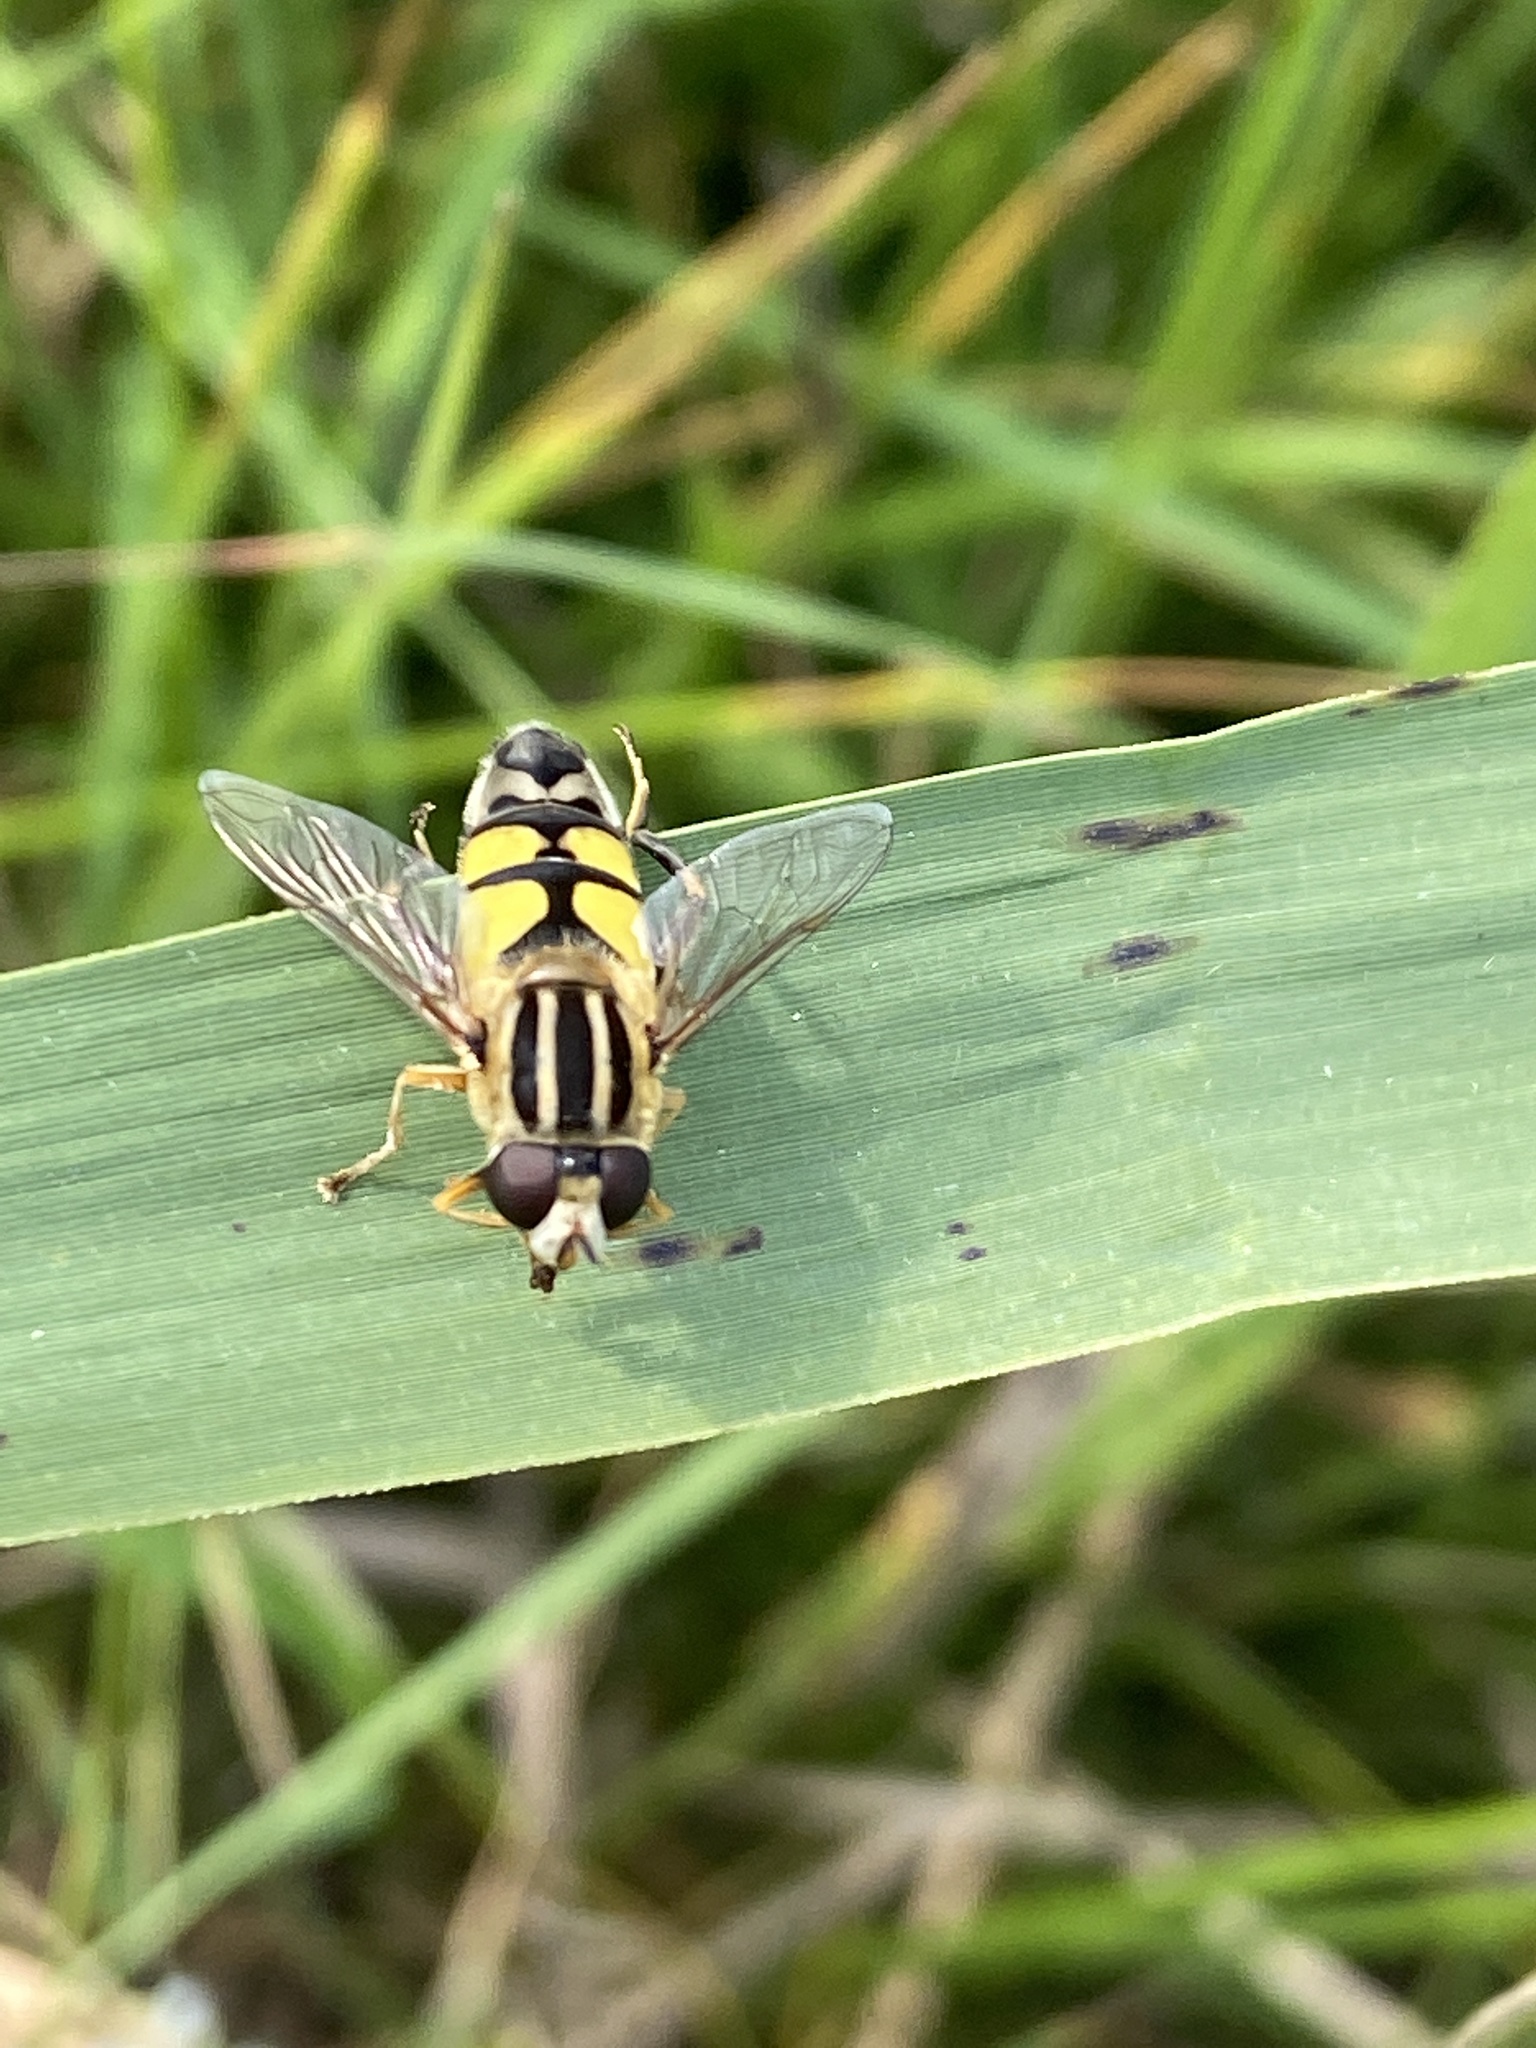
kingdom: Animalia
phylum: Arthropoda
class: Insecta
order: Diptera
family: Syrphidae
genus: Helophilus
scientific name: Helophilus trivittatus
